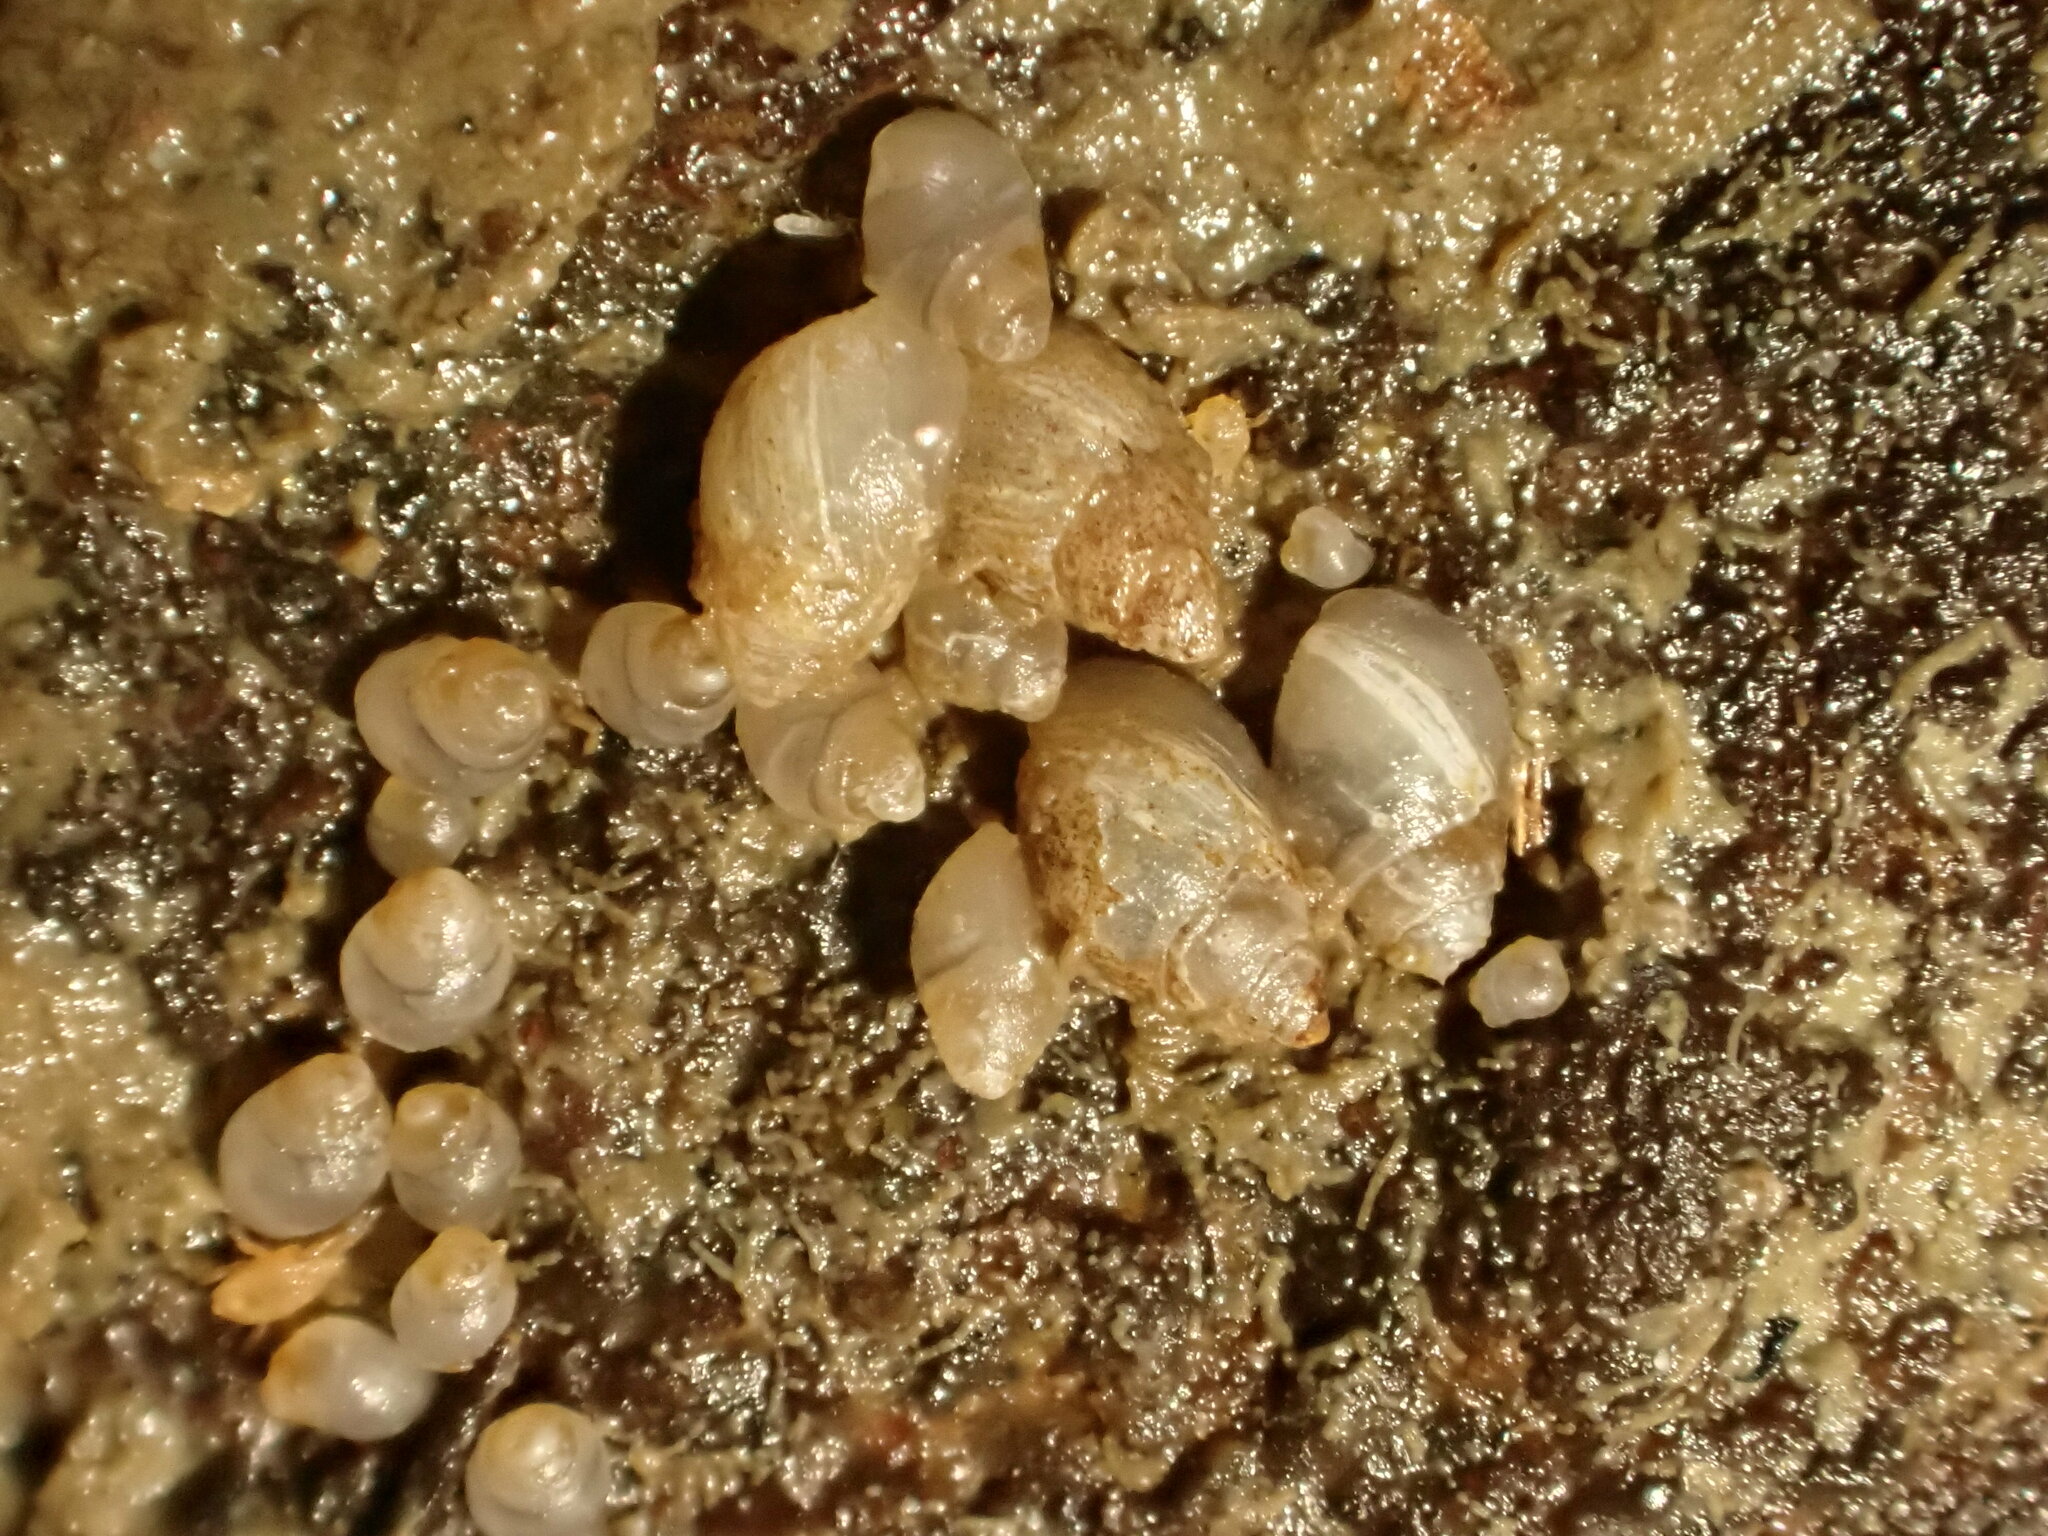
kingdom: Animalia
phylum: Mollusca
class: Gastropoda
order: Ellobiida
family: Ellobiidae
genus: Leuconopsis
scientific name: Leuconopsis obsoleta
